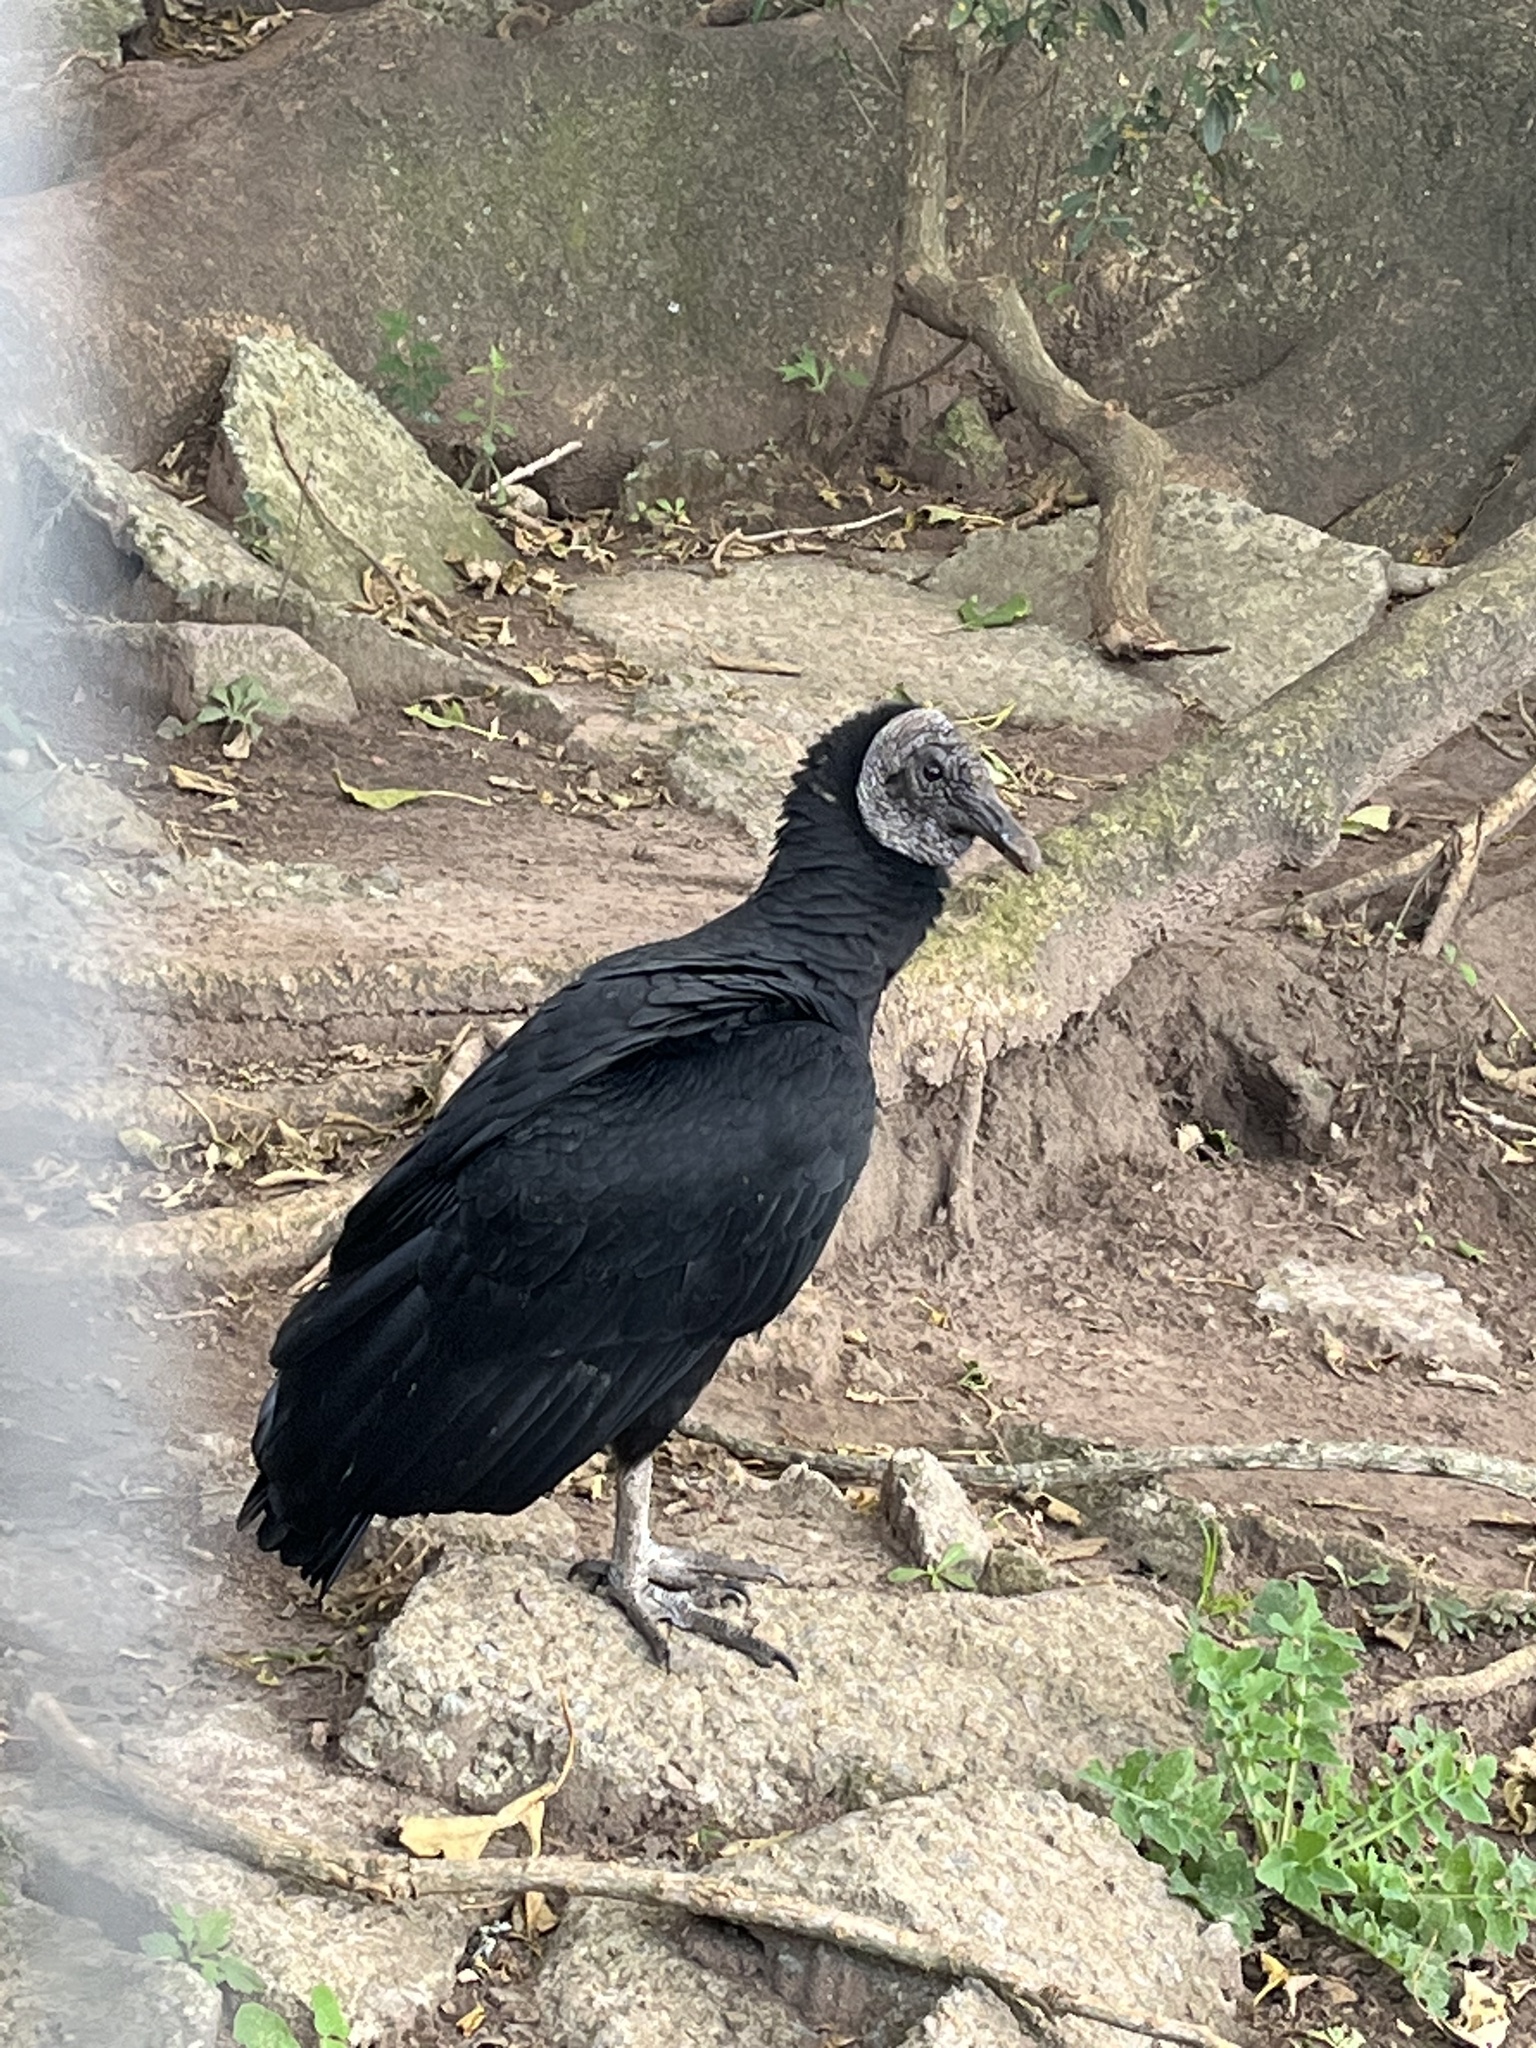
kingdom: Animalia
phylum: Chordata
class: Aves
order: Accipitriformes
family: Cathartidae
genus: Coragyps
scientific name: Coragyps atratus
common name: Black vulture
